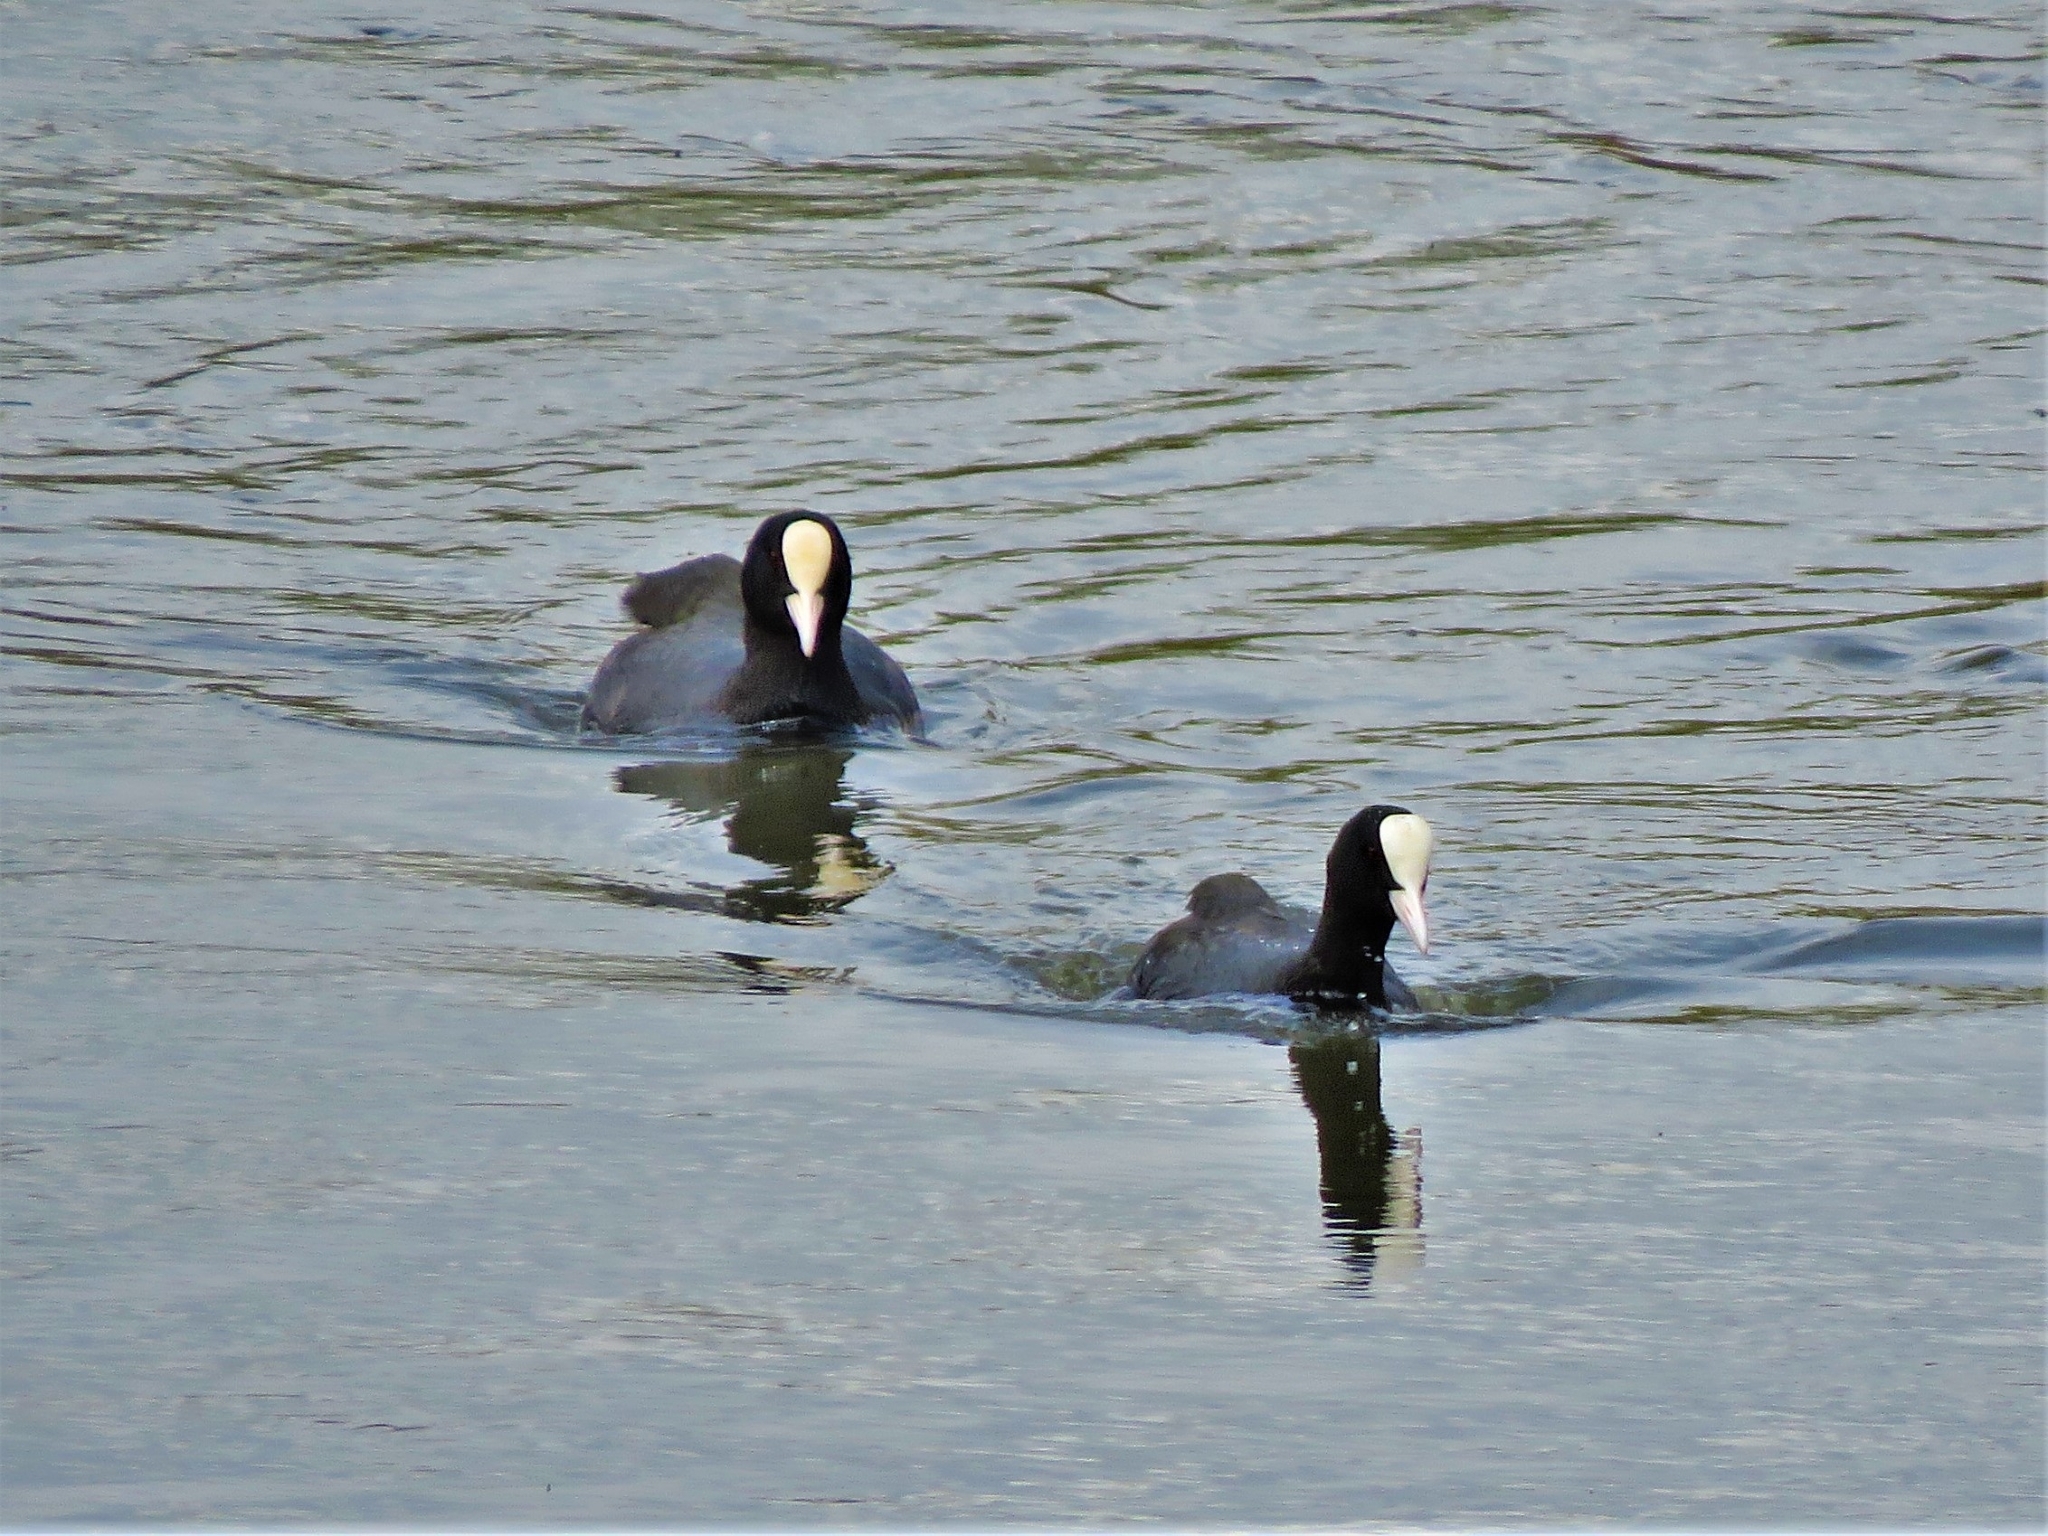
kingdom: Animalia
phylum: Chordata
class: Aves
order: Gruiformes
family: Rallidae
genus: Fulica
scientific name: Fulica atra
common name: Eurasian coot
